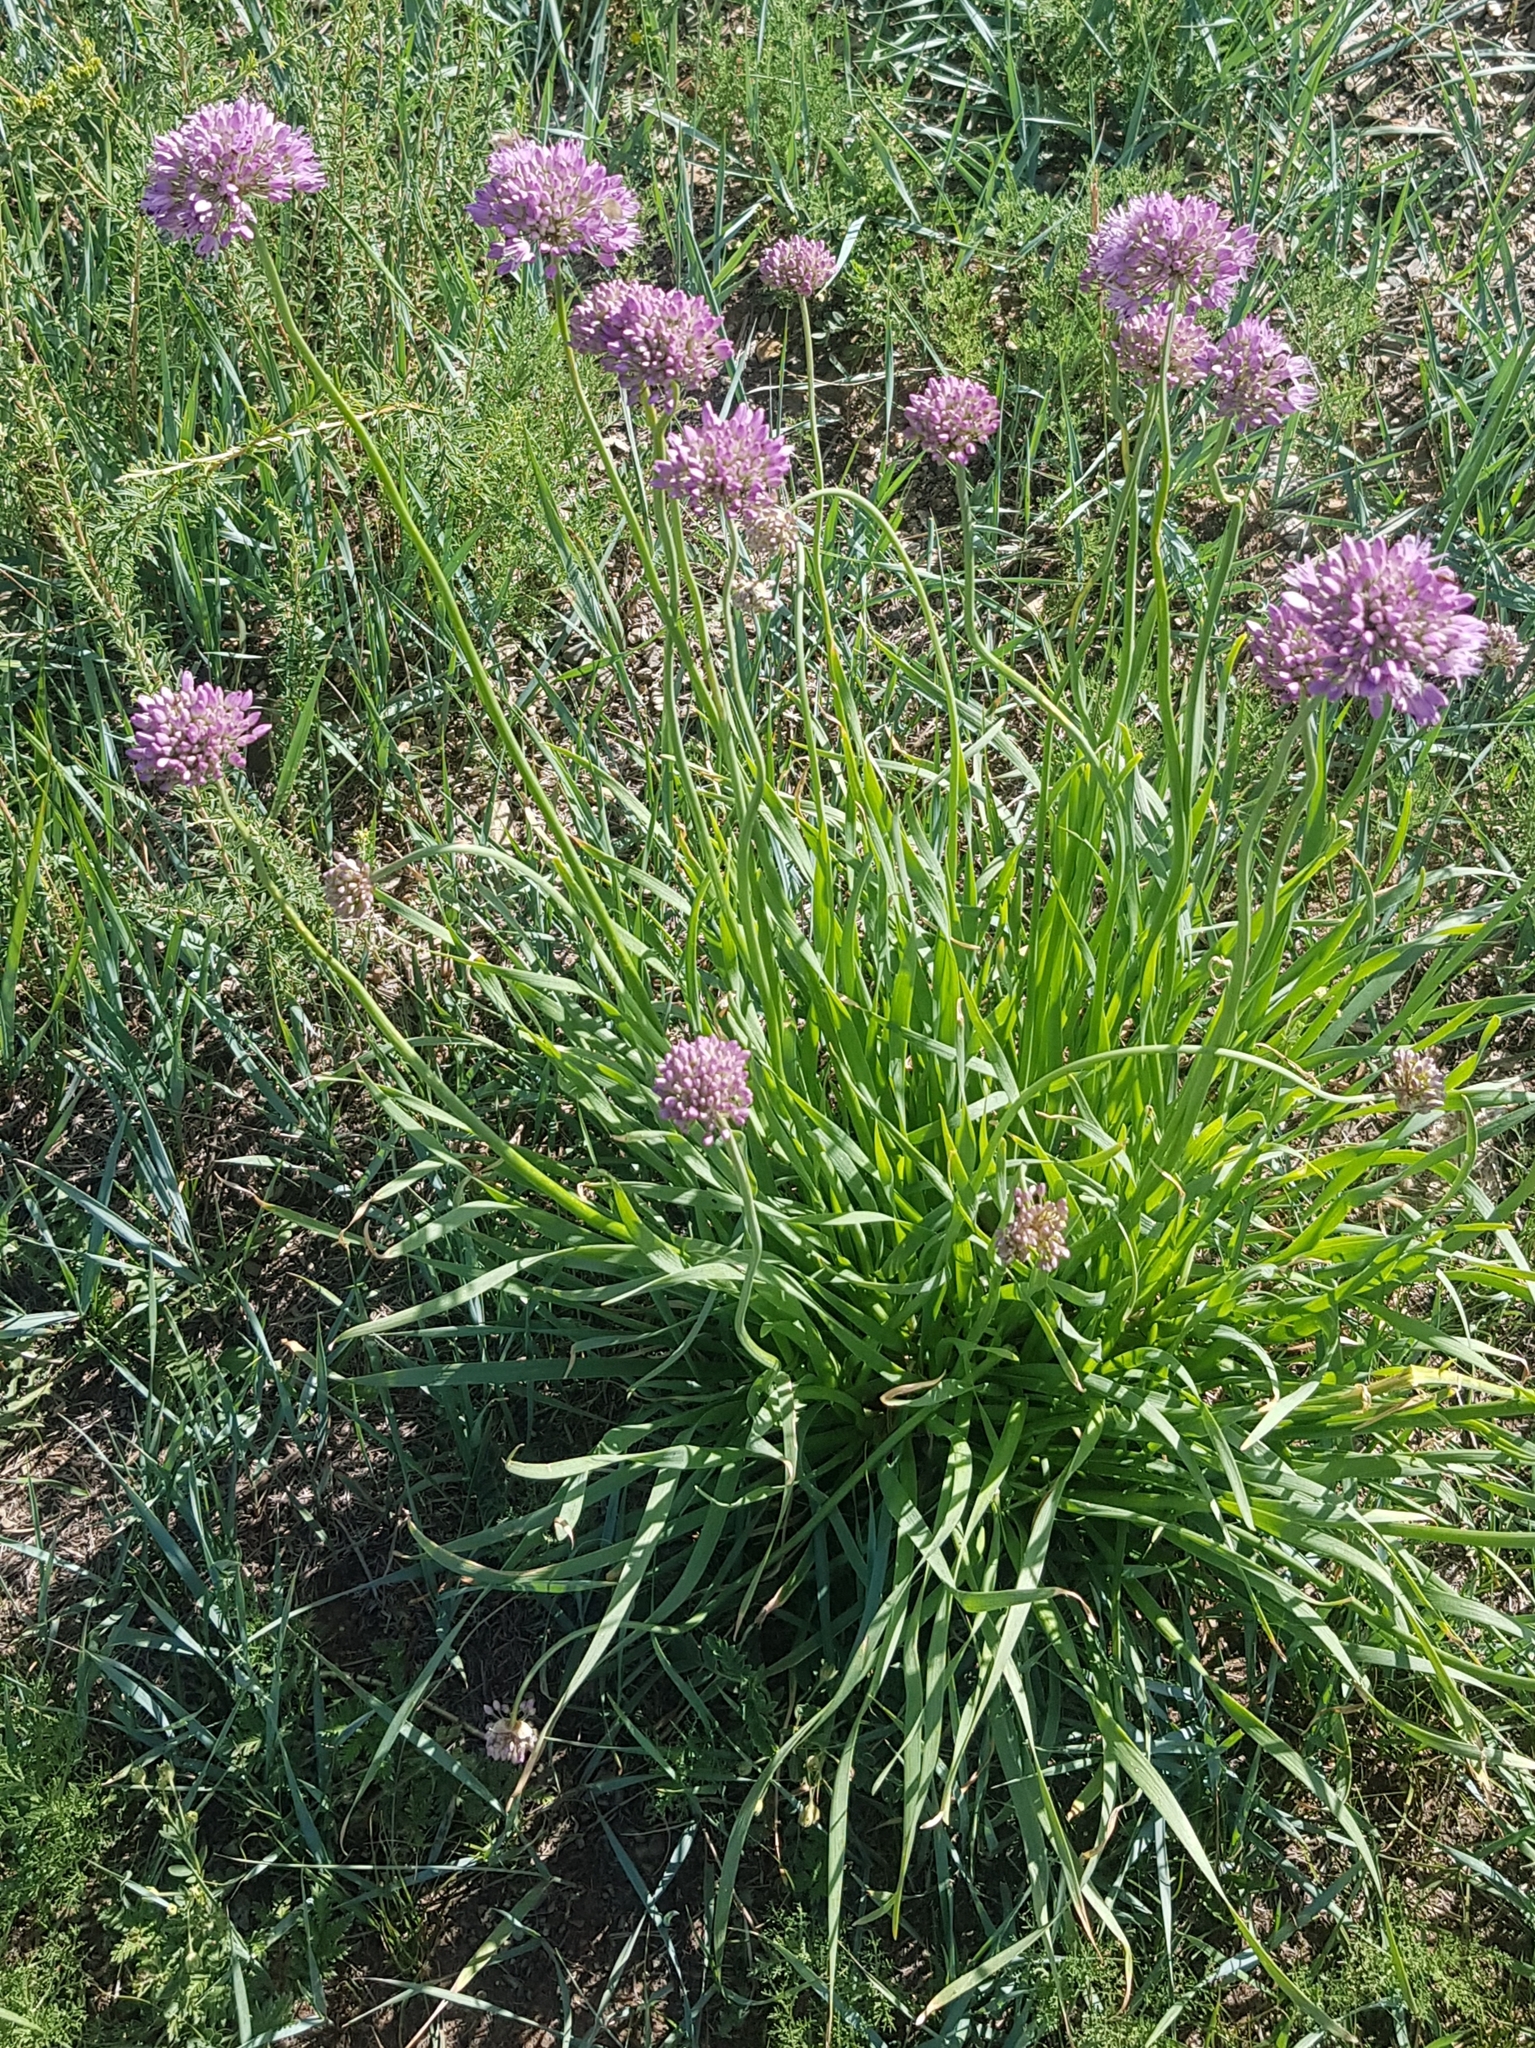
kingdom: Plantae
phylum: Tracheophyta
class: Liliopsida
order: Asparagales
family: Amaryllidaceae
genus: Allium
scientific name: Allium senescens
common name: German garlic
